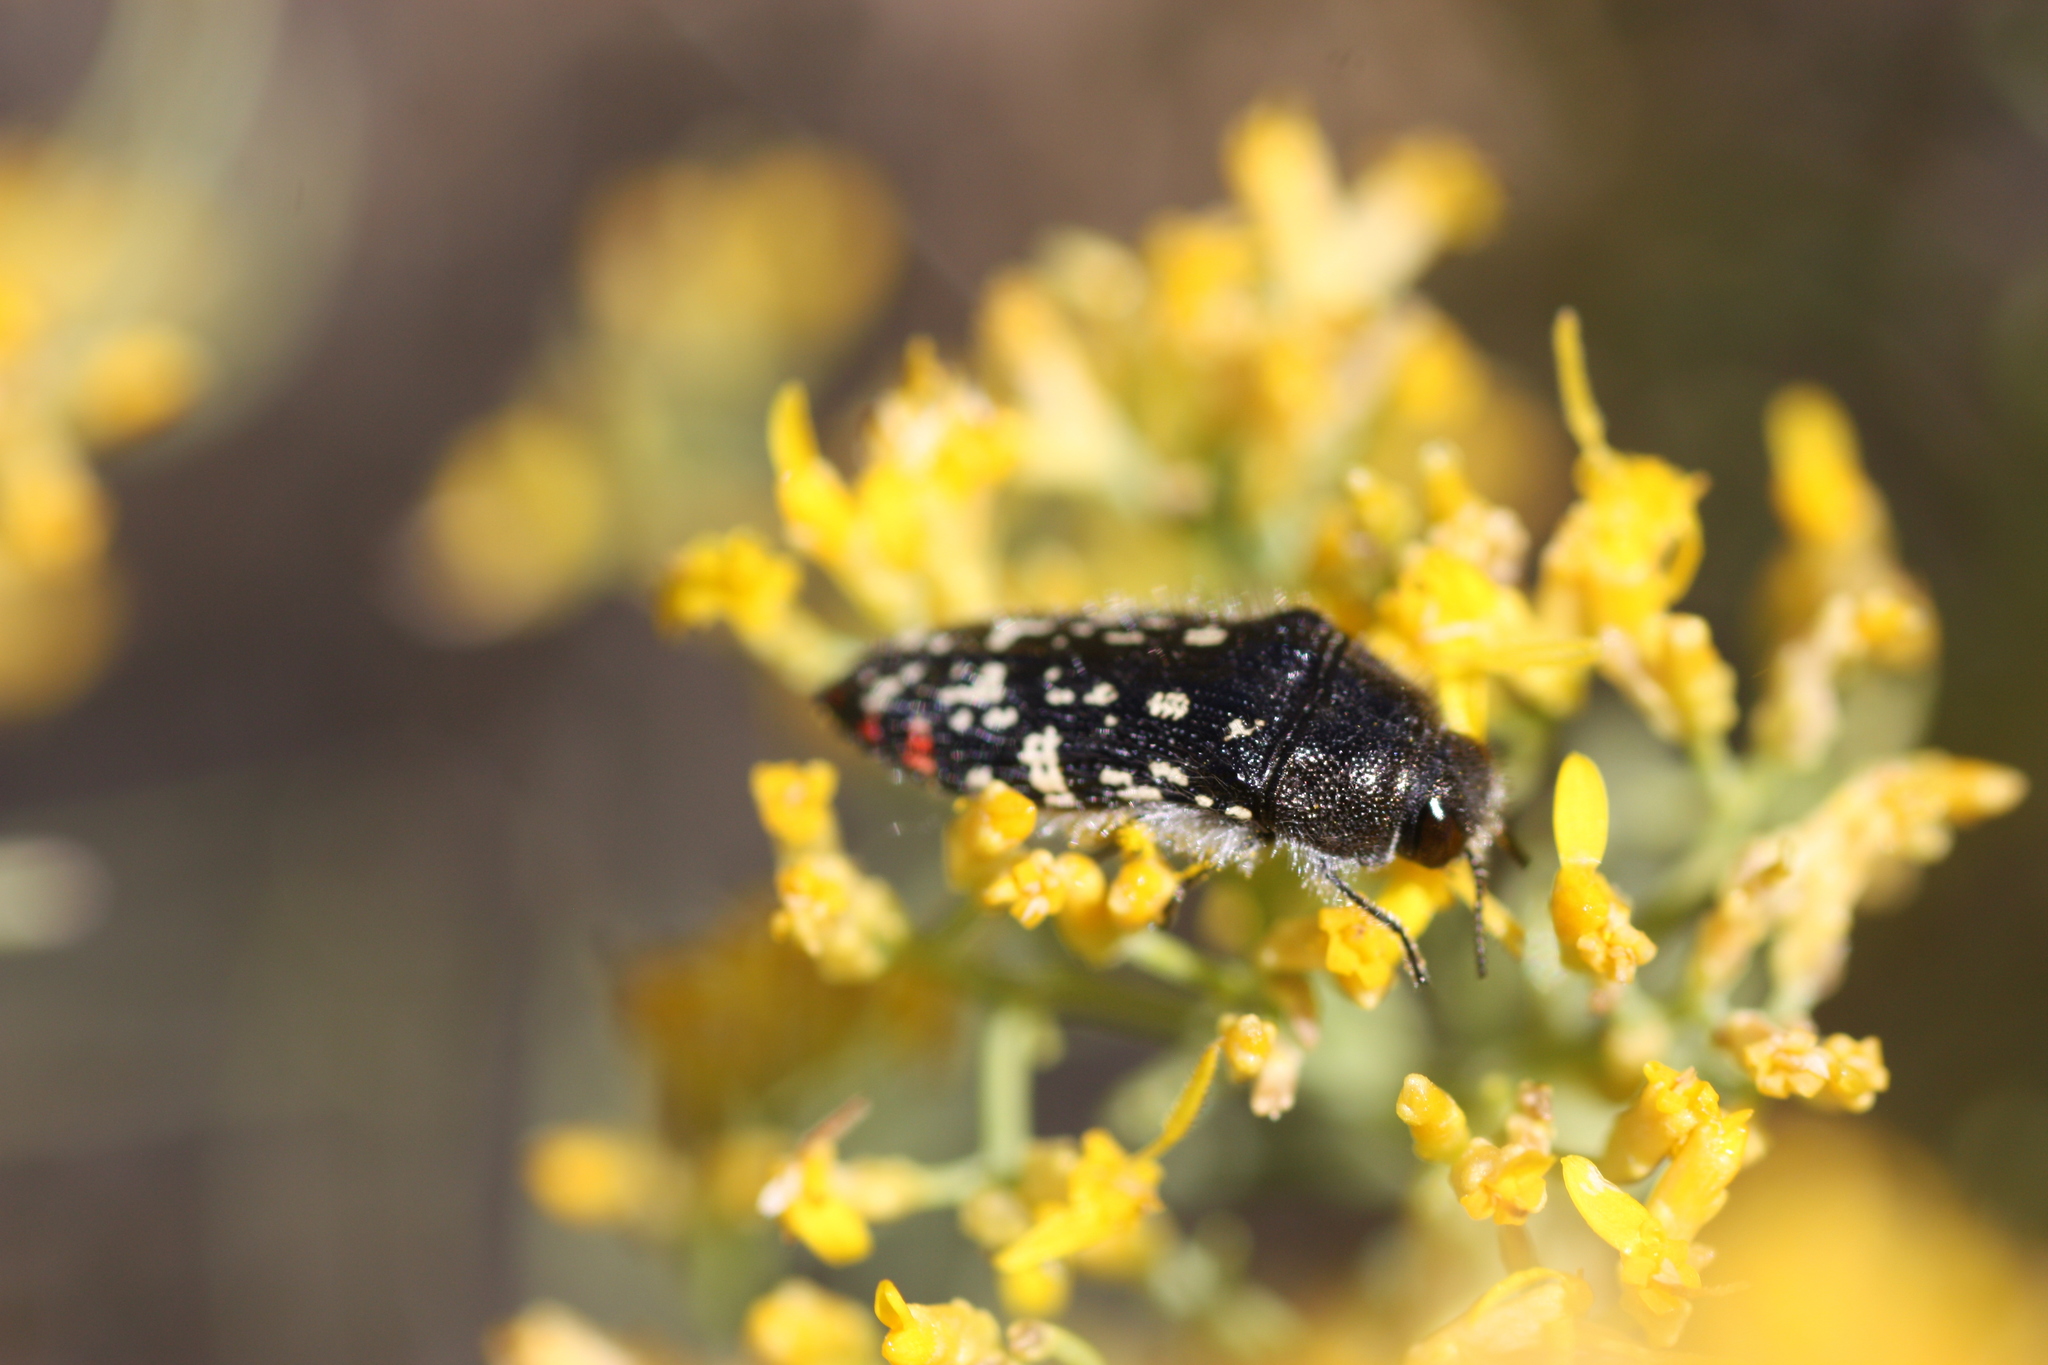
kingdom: Animalia
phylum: Arthropoda
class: Insecta
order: Coleoptera
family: Buprestidae
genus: Acmaeodera
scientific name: Acmaeodera rubronotata
